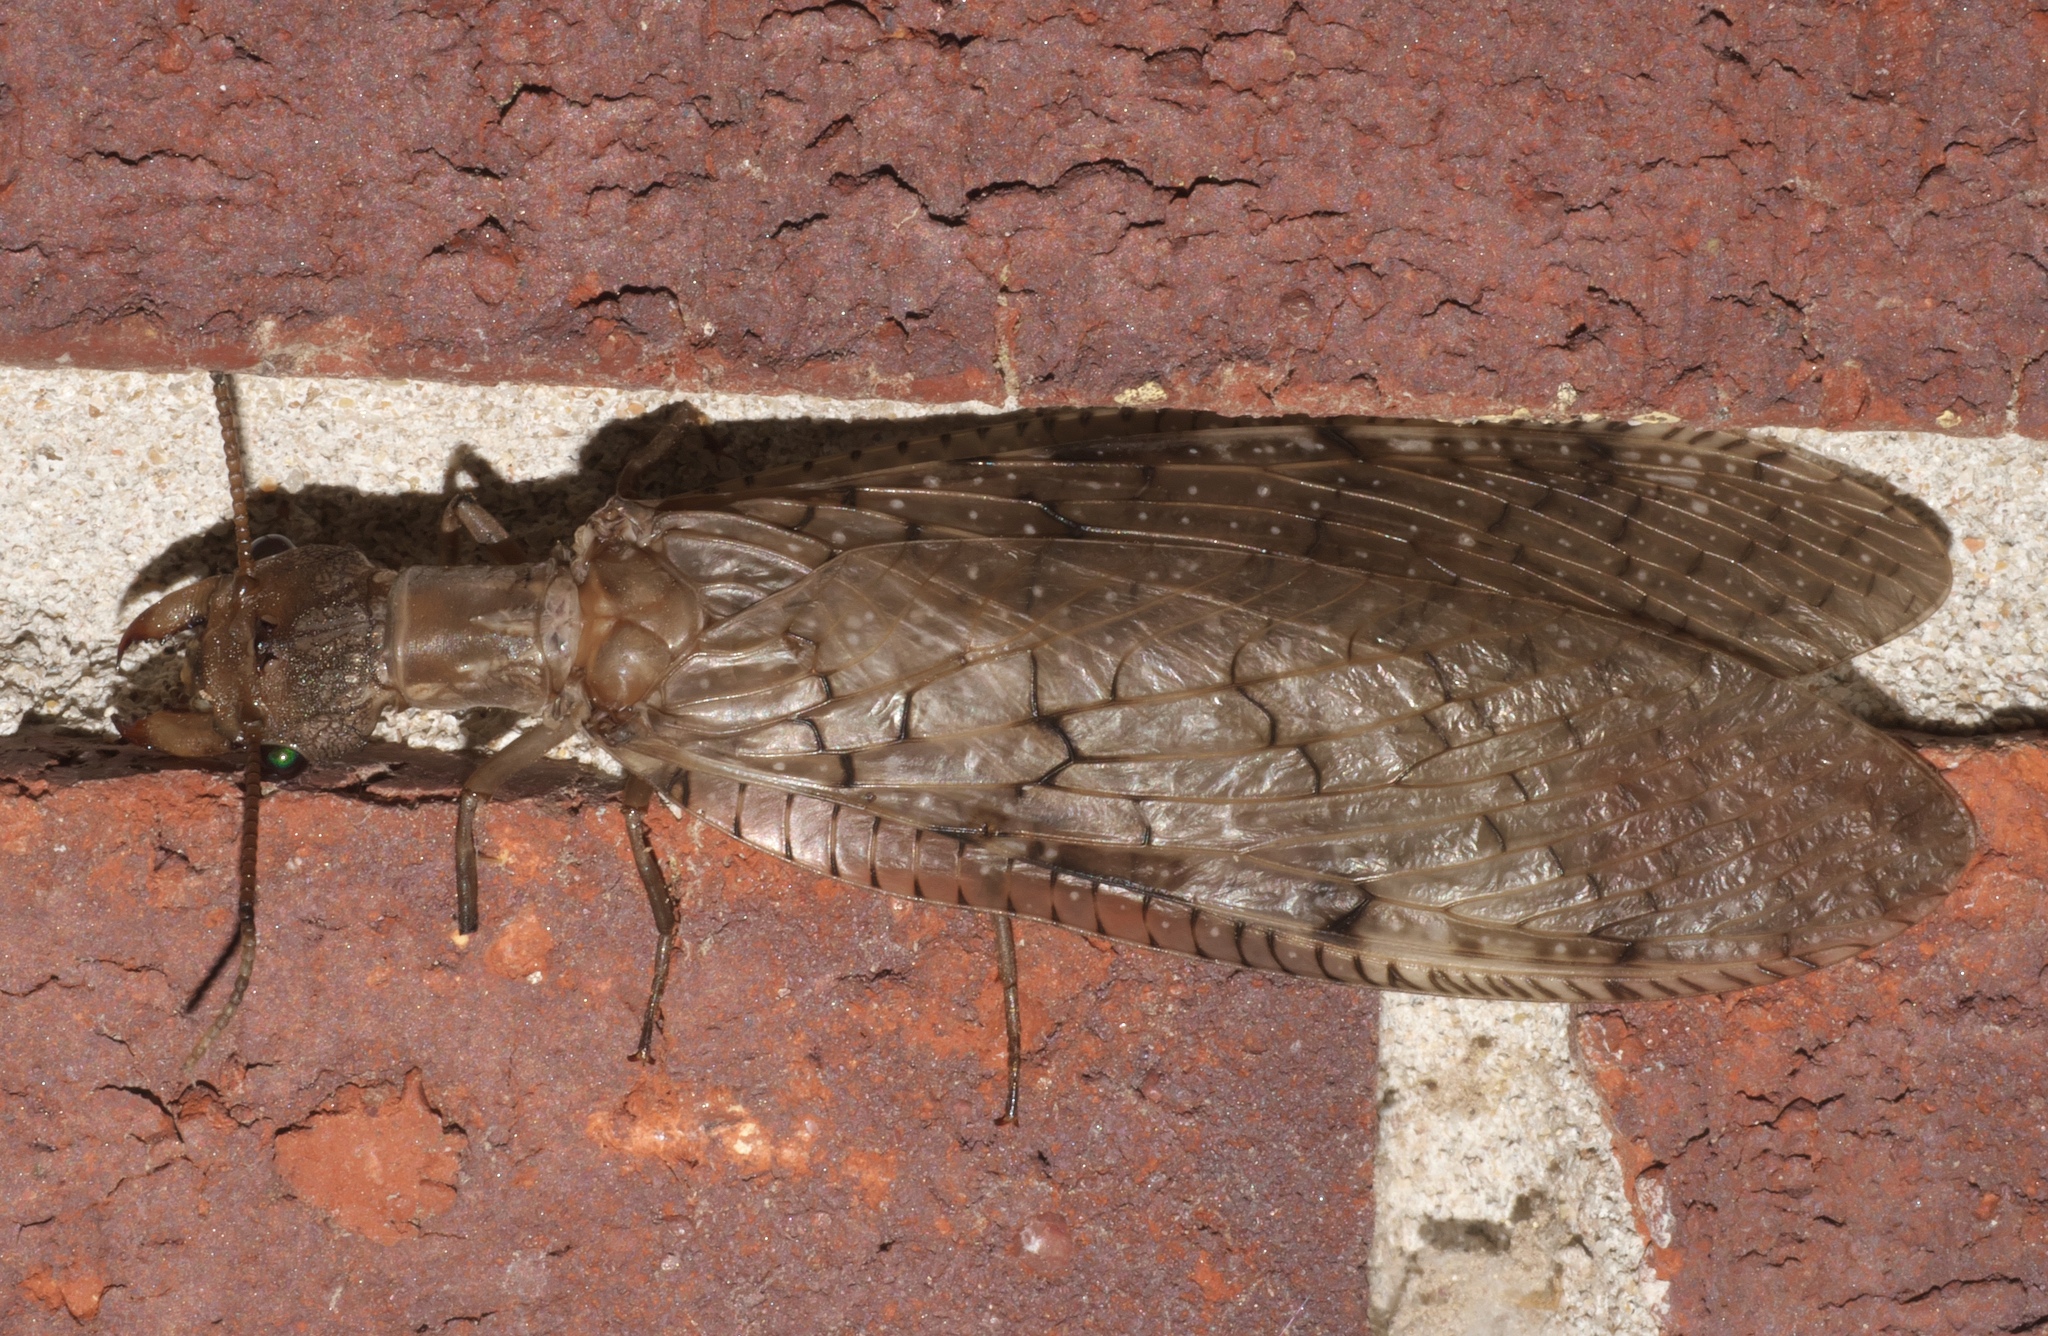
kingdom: Animalia
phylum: Arthropoda
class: Insecta
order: Megaloptera
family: Corydalidae
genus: Corydalus
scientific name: Corydalus cornutus
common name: Dobsonfly
